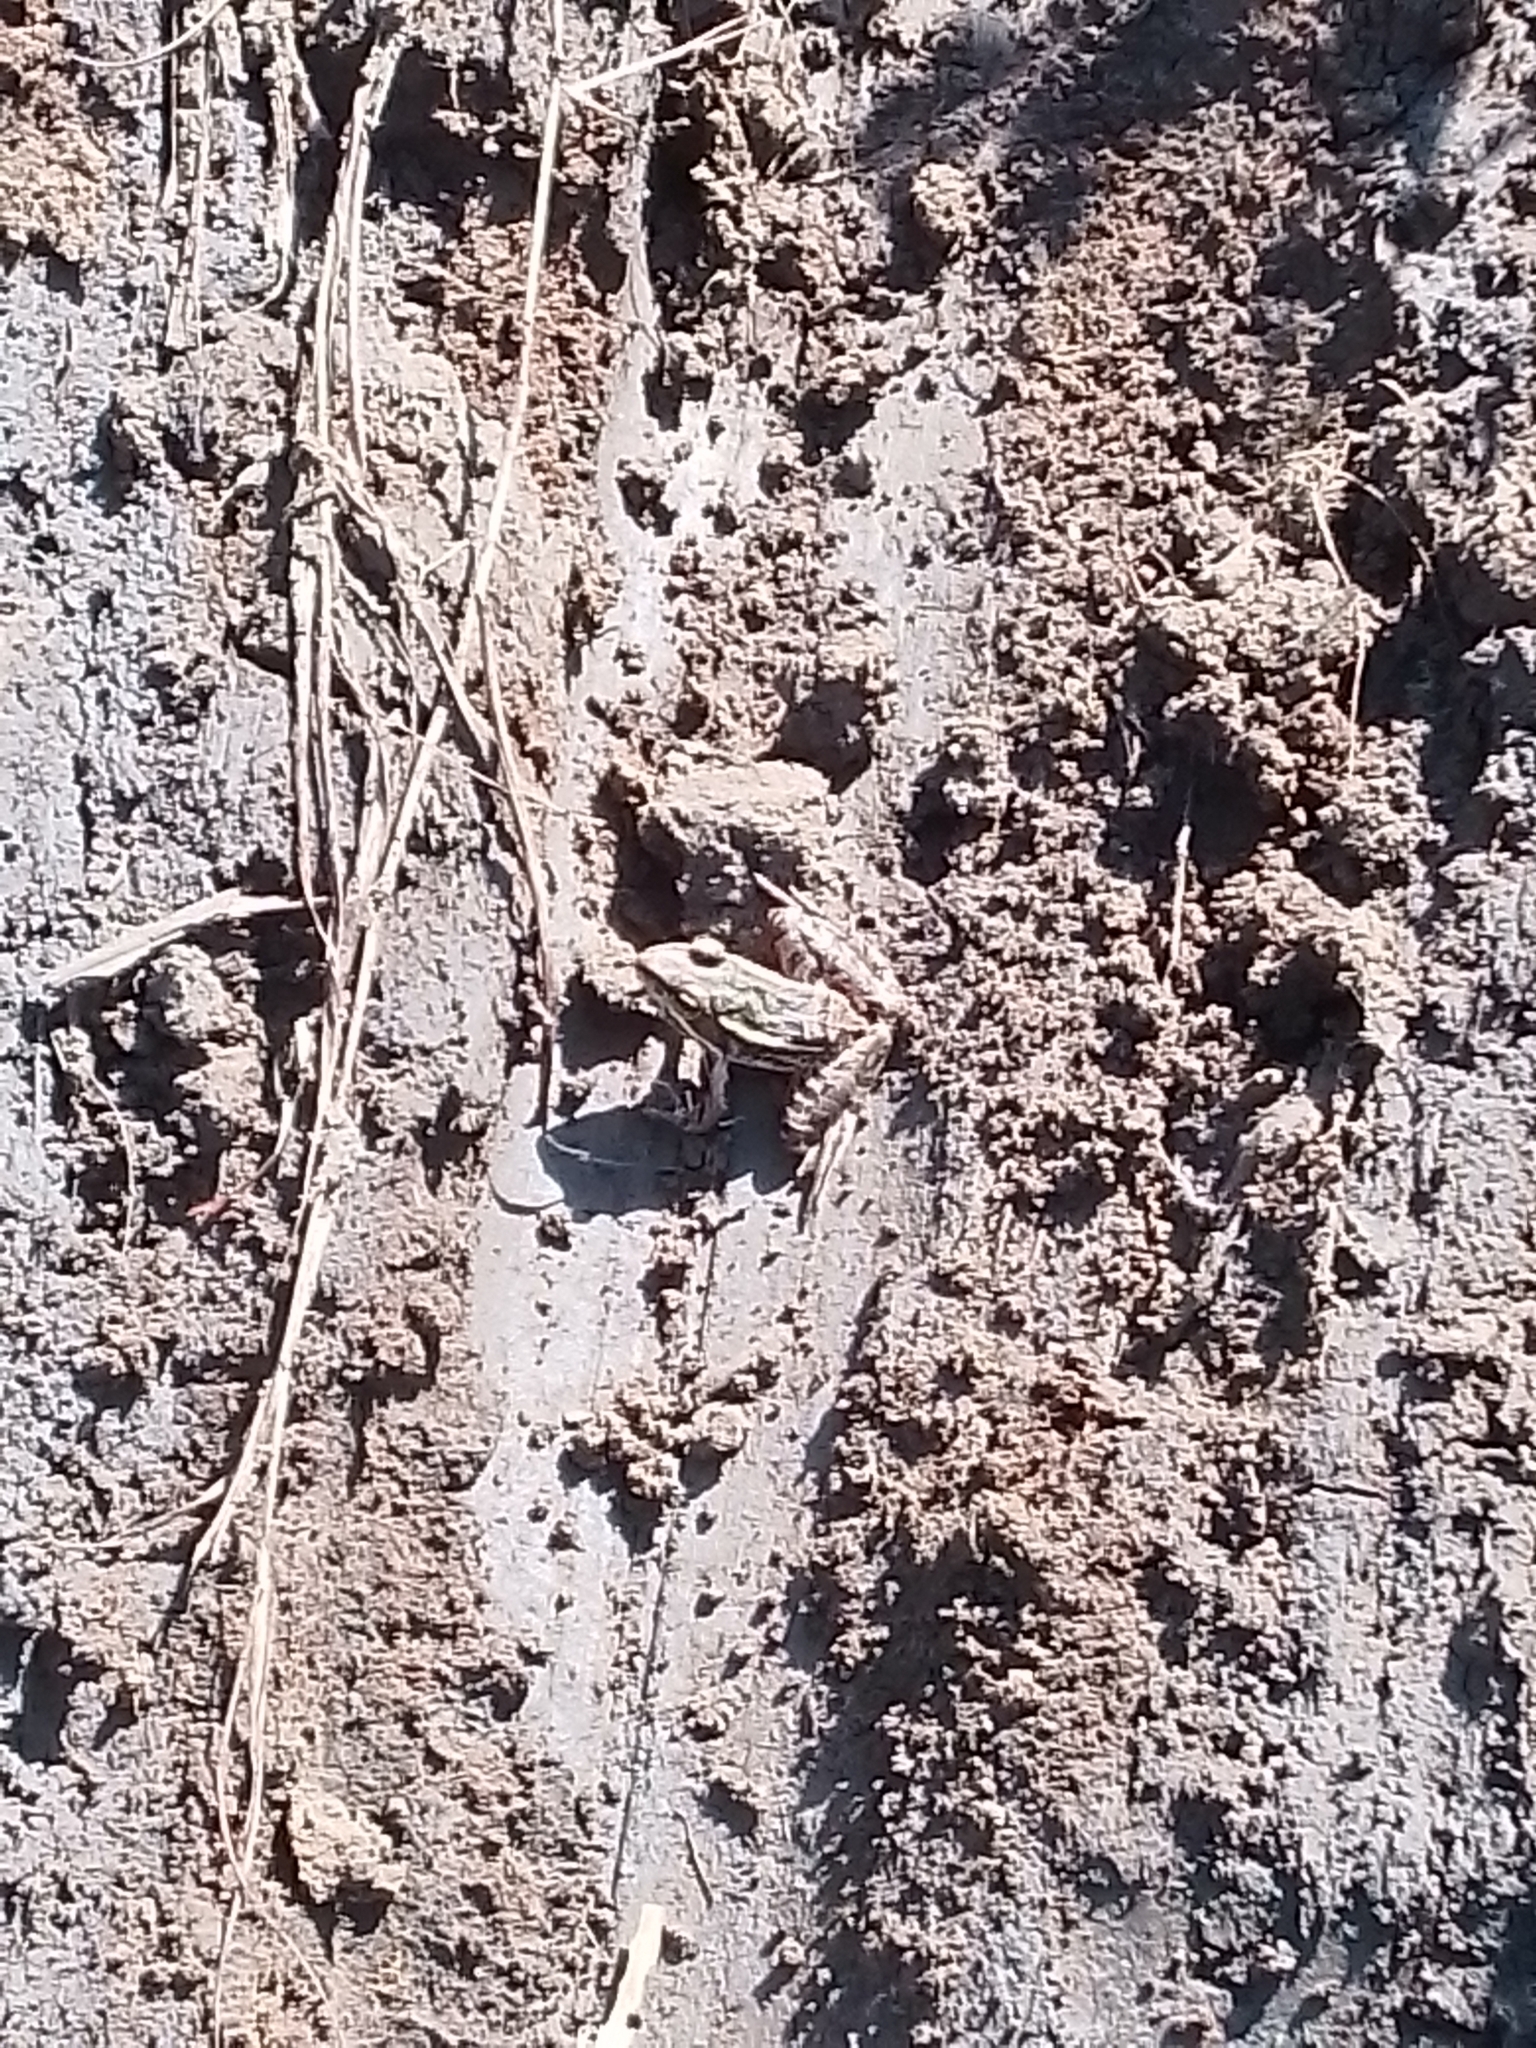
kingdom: Animalia
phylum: Chordata
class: Amphibia
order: Anura
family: Ranidae
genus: Lithobates
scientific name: Lithobates brownorum
